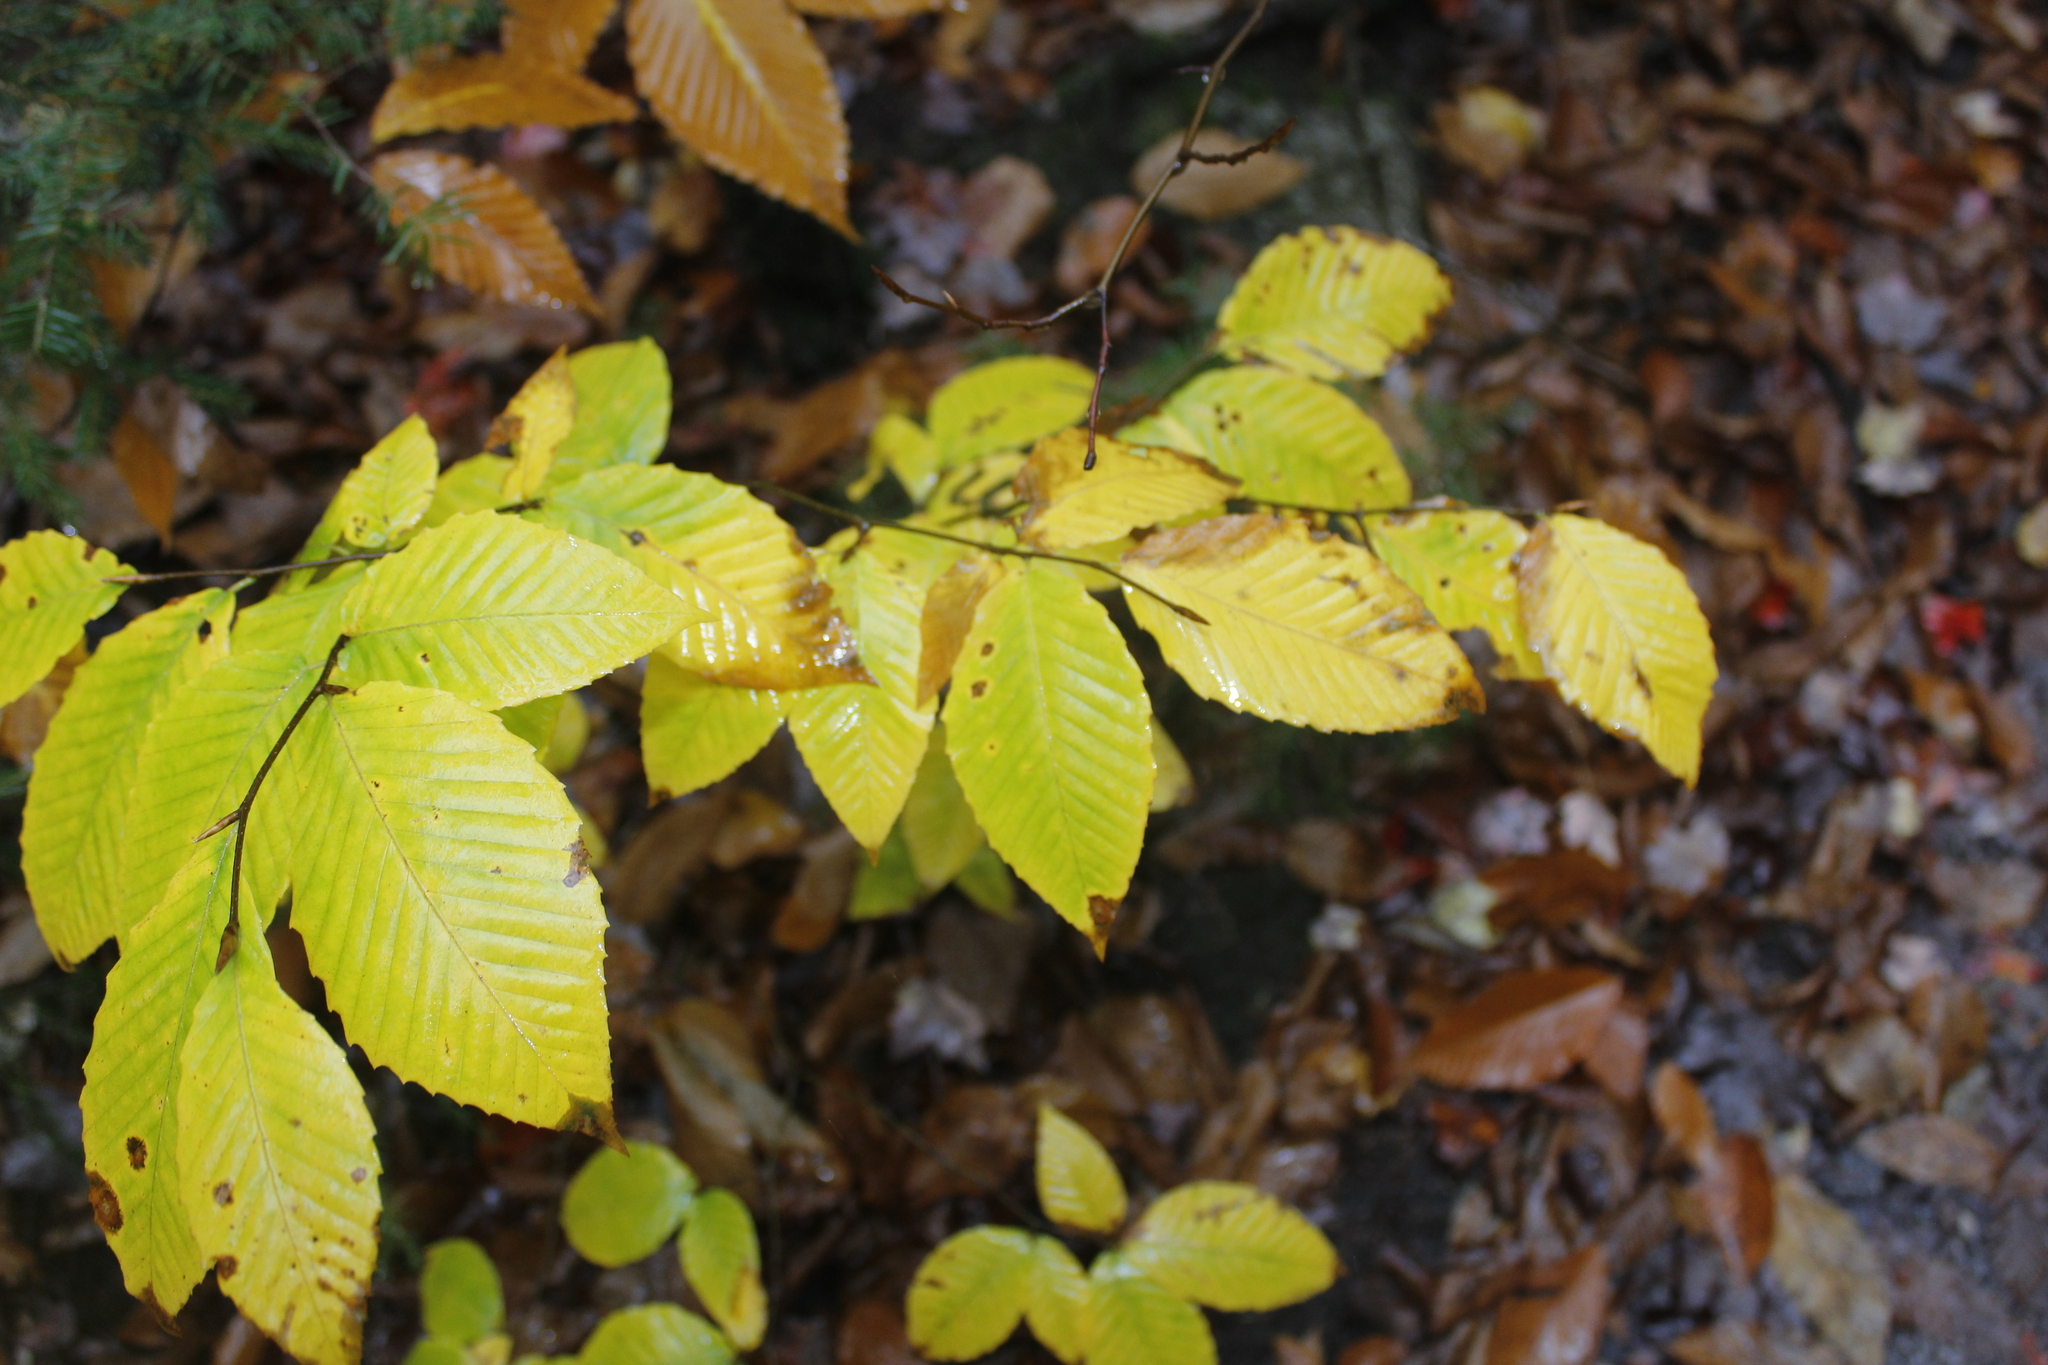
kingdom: Plantae
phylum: Tracheophyta
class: Magnoliopsida
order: Fagales
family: Fagaceae
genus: Fagus
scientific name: Fagus grandifolia
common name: American beech
